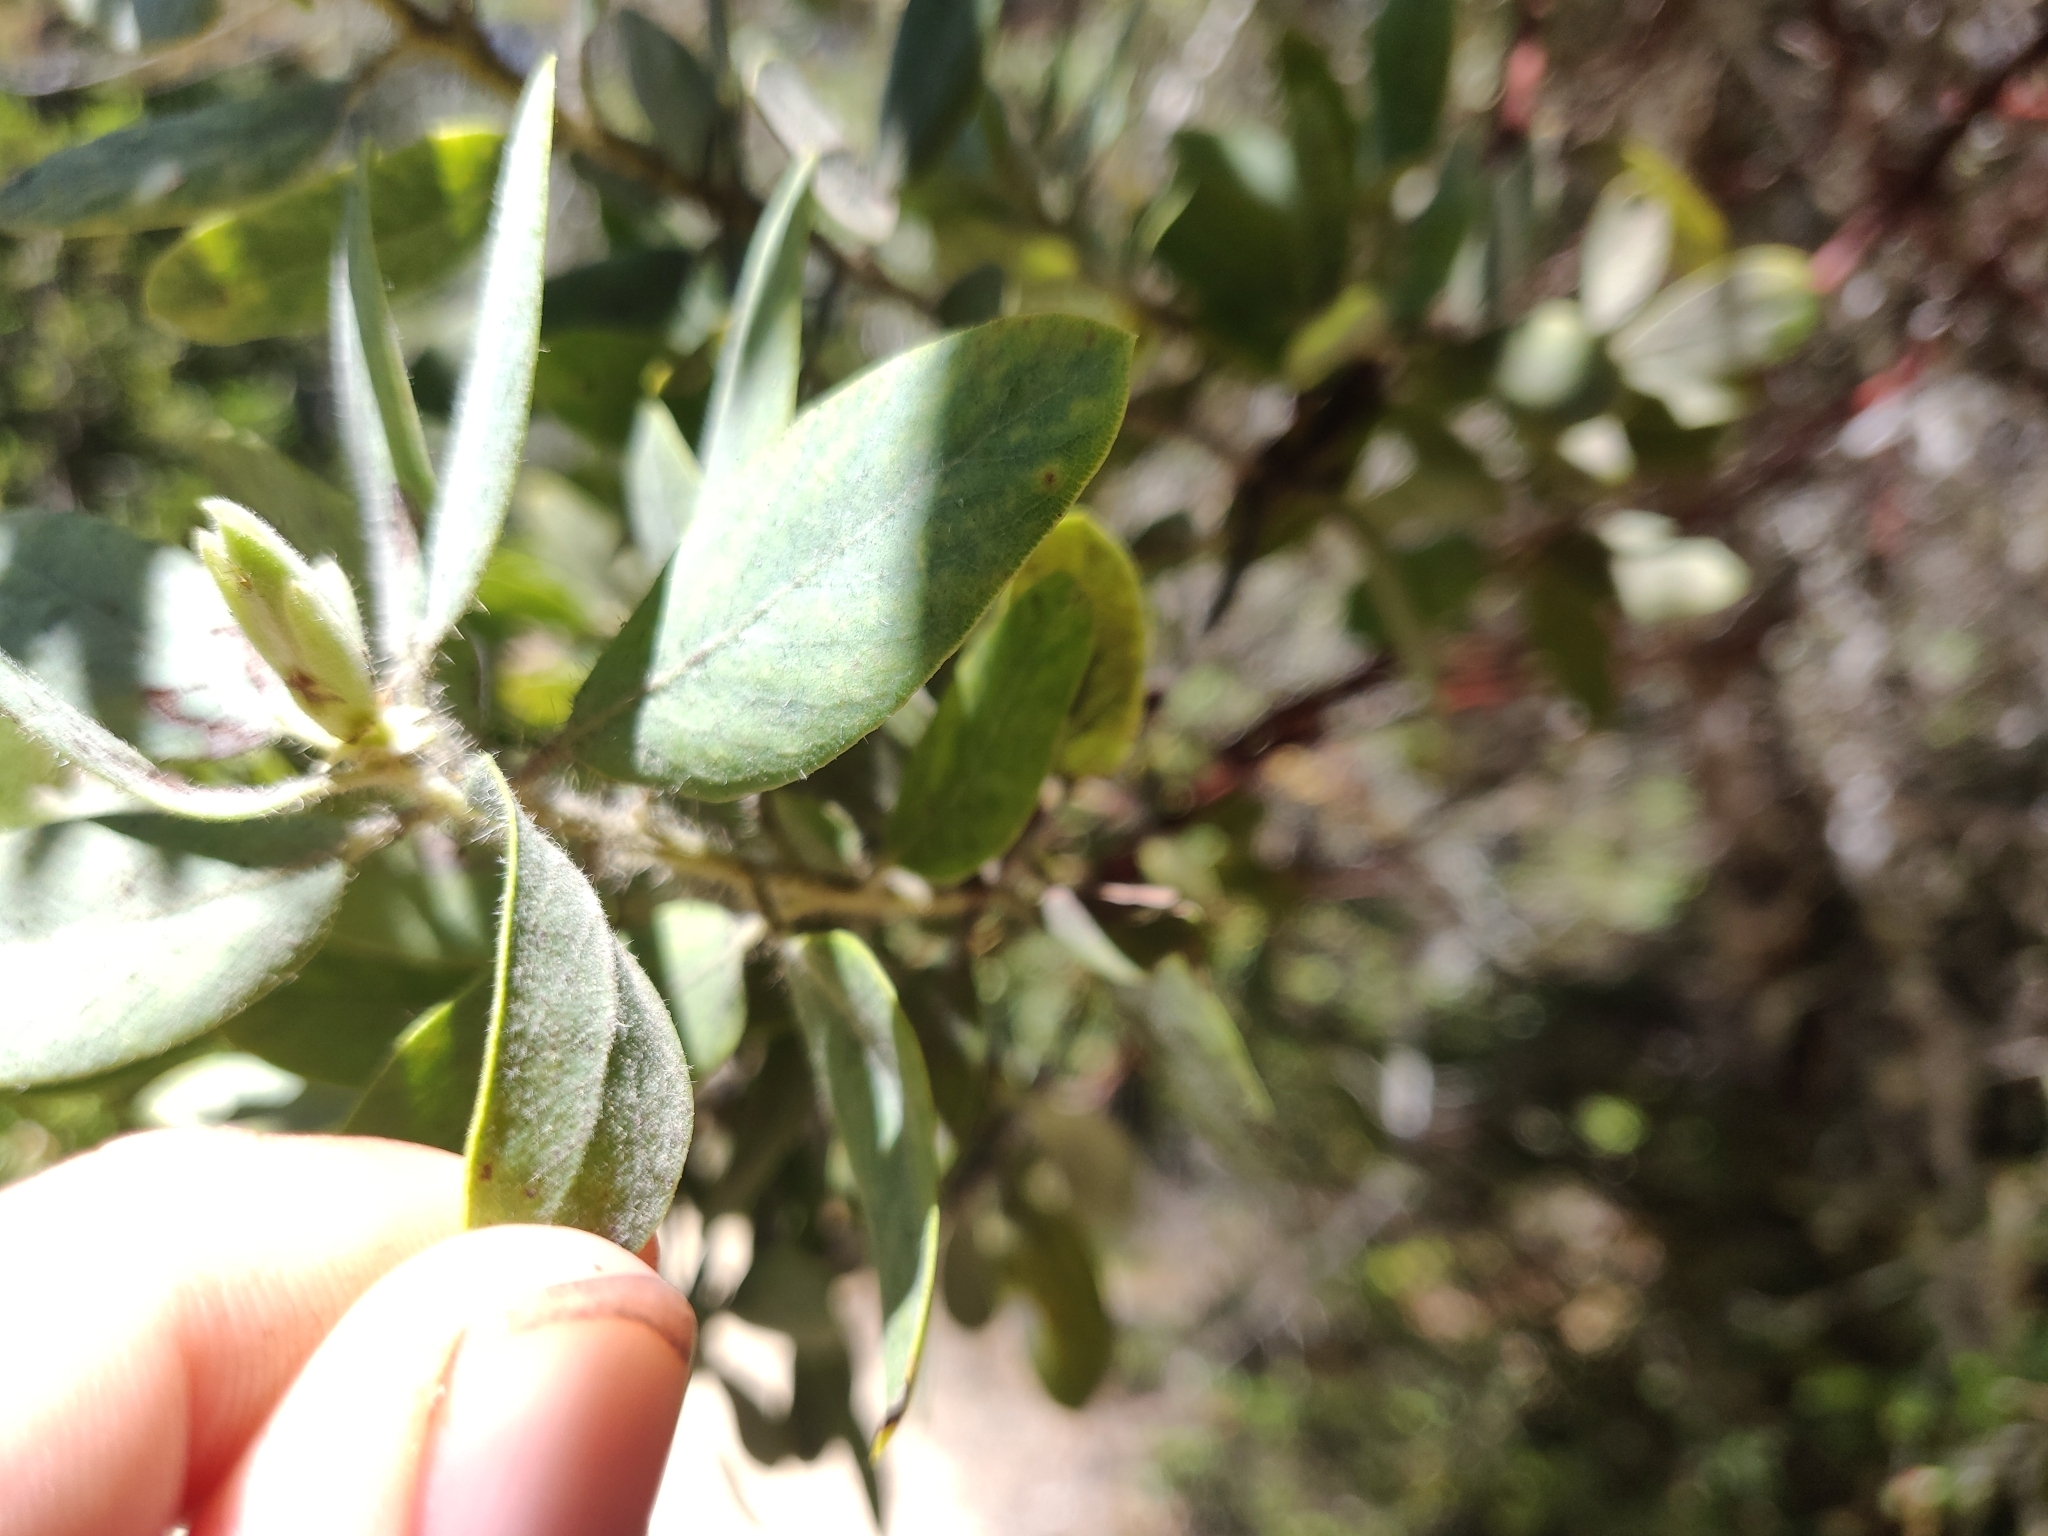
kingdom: Plantae
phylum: Tracheophyta
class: Magnoliopsida
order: Ericales
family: Ericaceae
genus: Arctostaphylos
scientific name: Arctostaphylos columbiana
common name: Bristly bearberry
